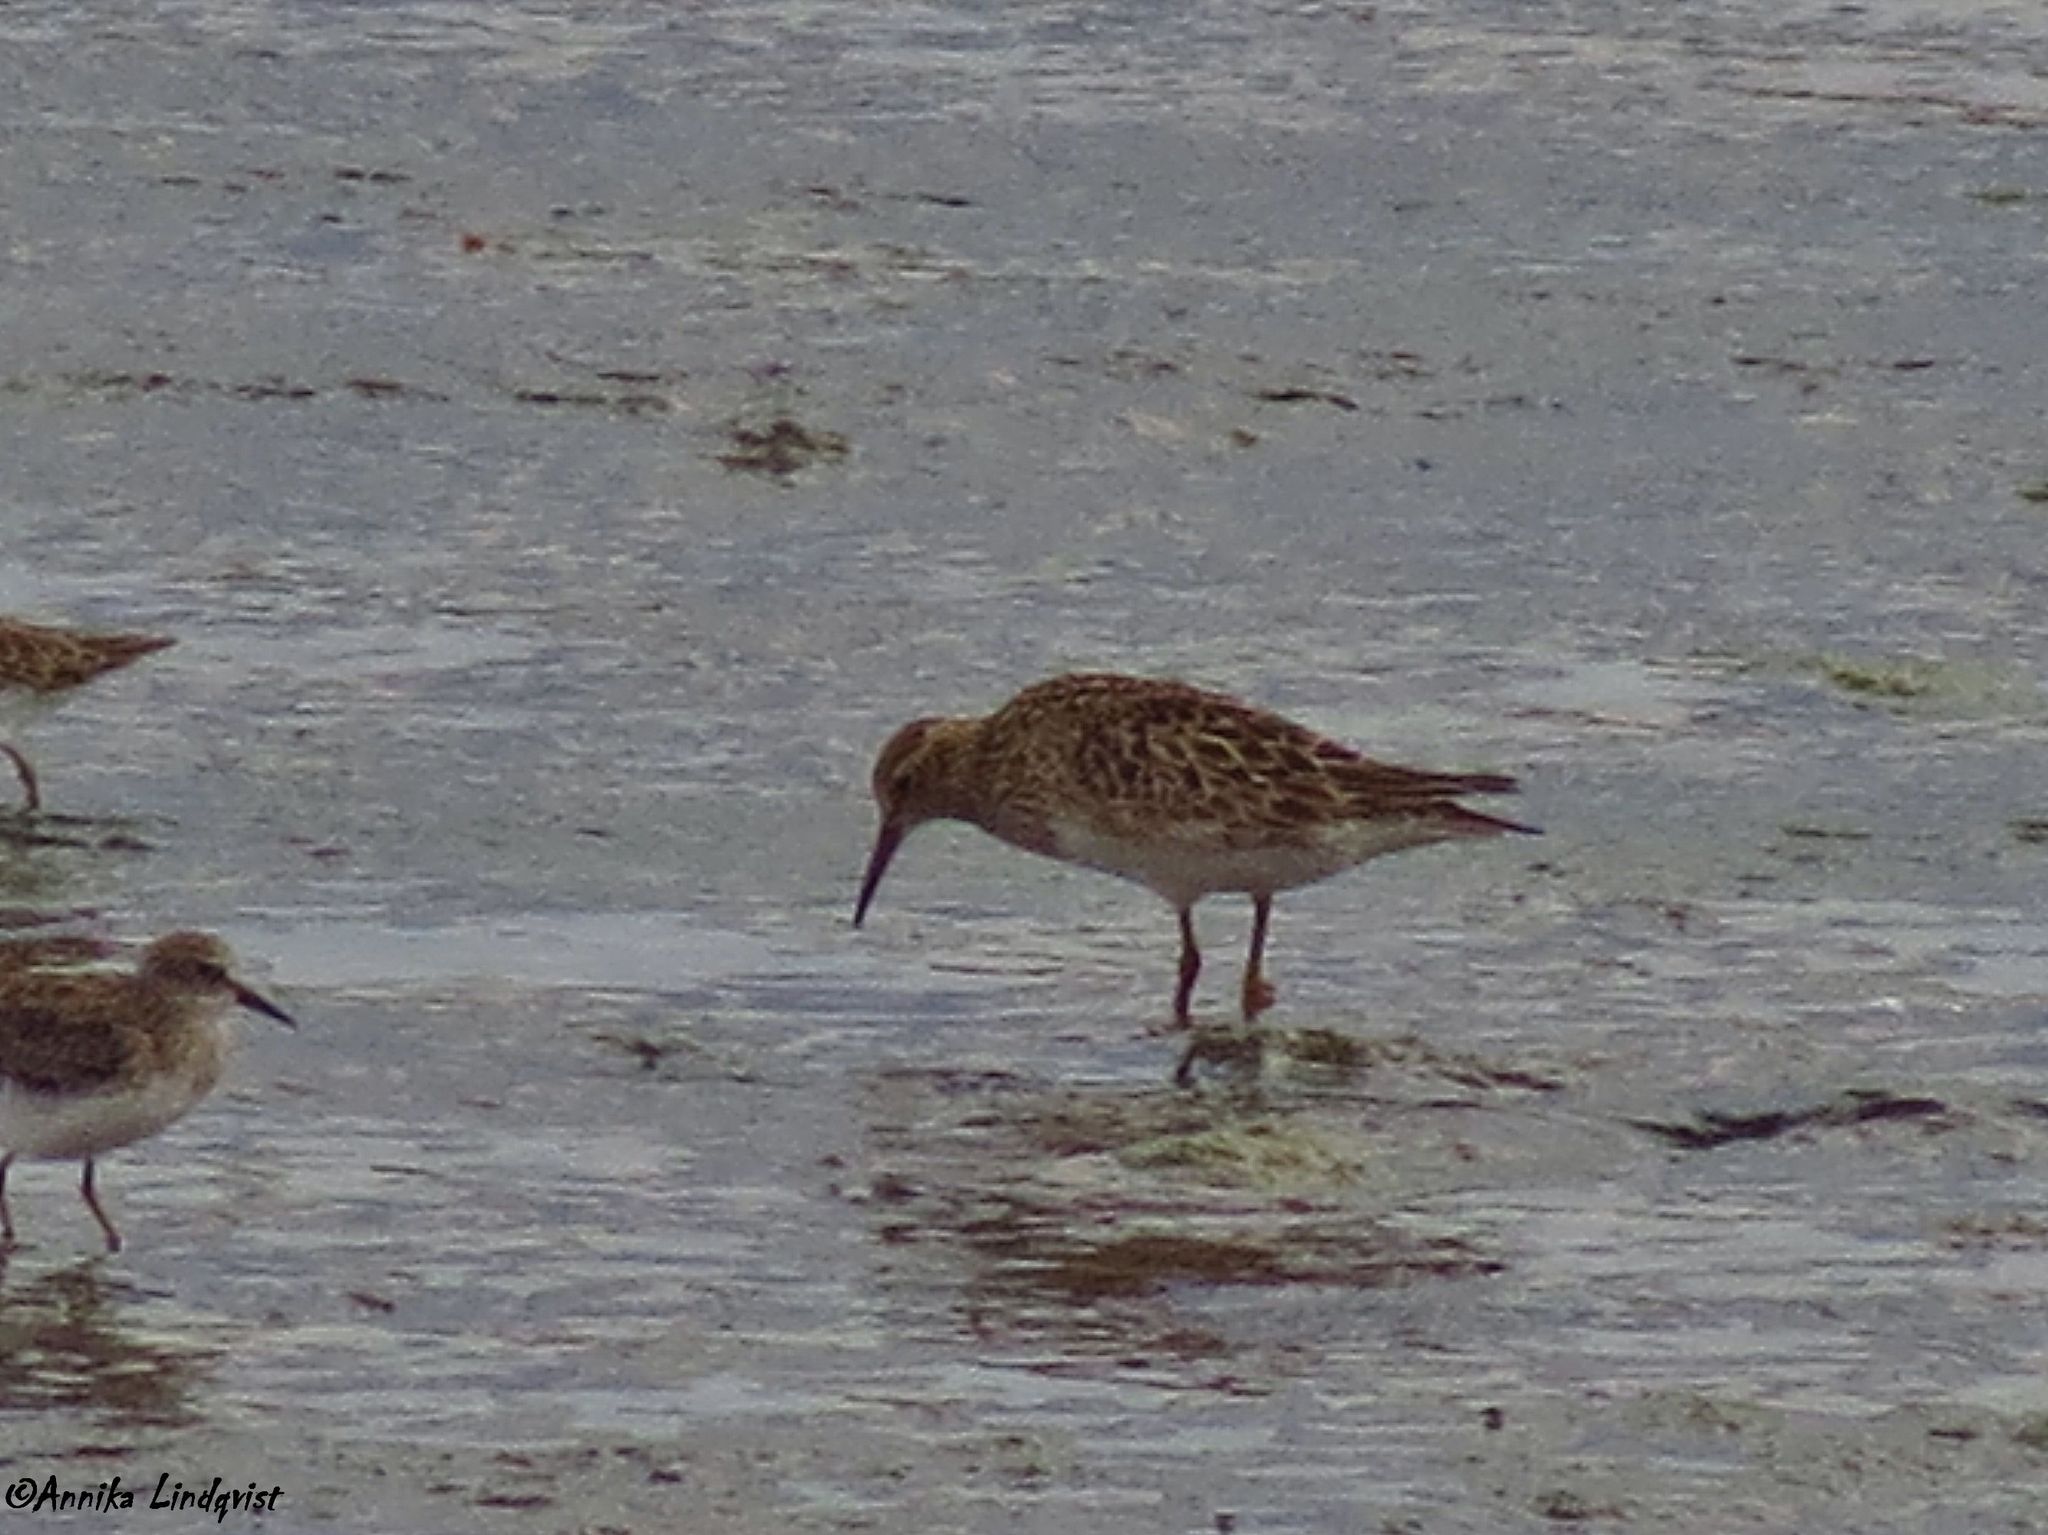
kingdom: Animalia
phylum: Chordata
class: Aves
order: Charadriiformes
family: Scolopacidae
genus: Calidris
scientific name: Calidris melanotos
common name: Pectoral sandpiper
